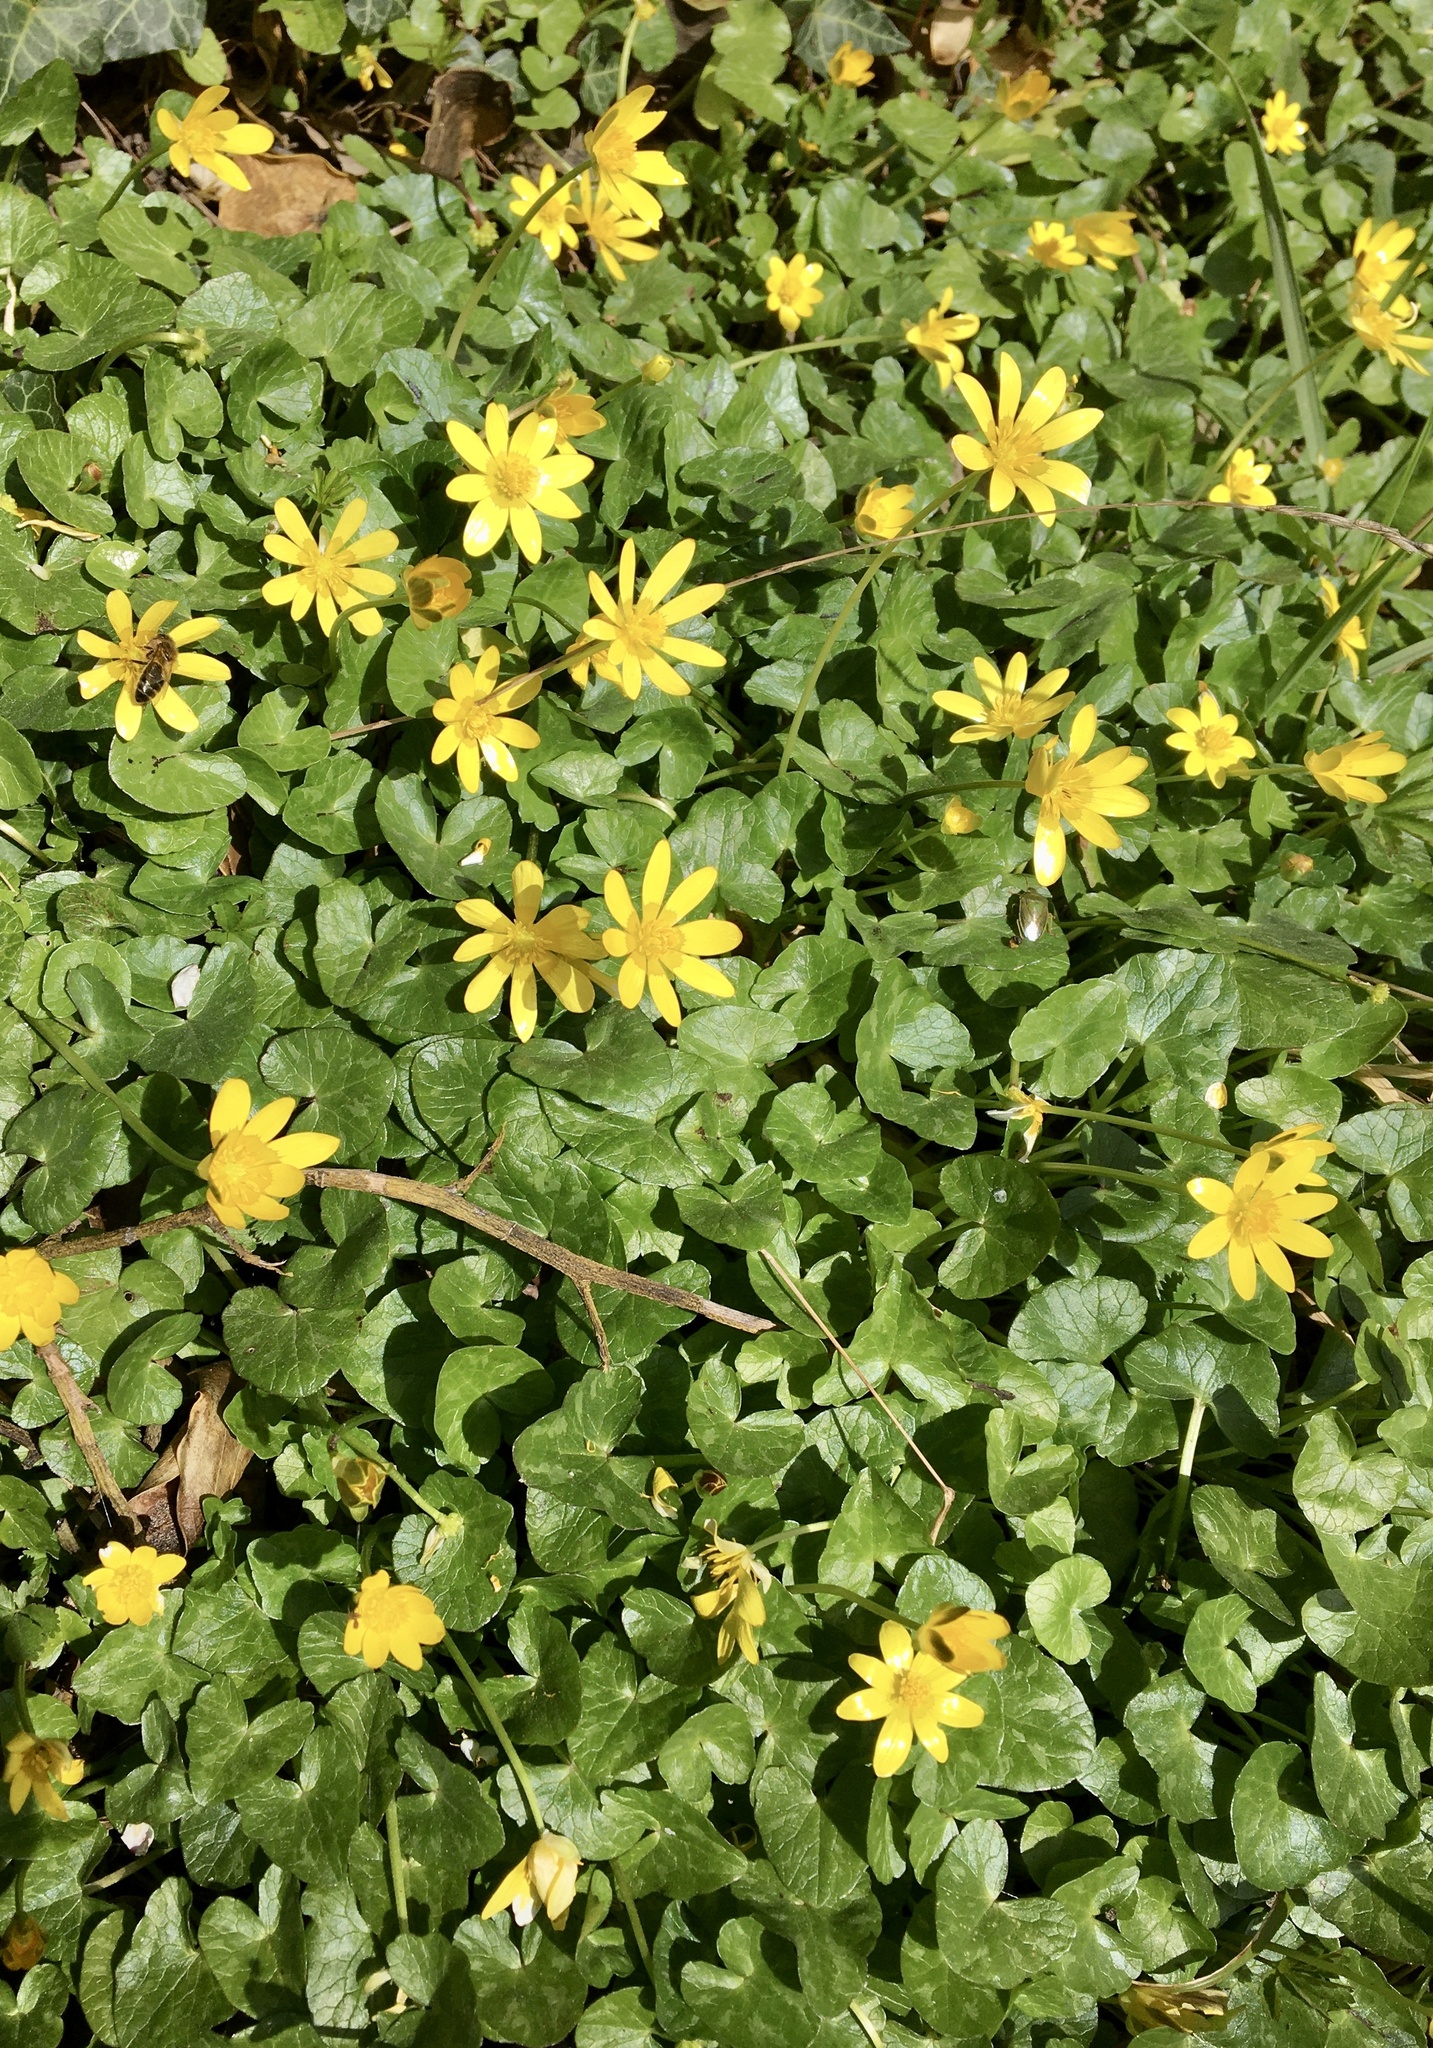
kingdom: Plantae
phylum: Tracheophyta
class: Magnoliopsida
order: Ranunculales
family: Ranunculaceae
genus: Ficaria
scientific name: Ficaria verna
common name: Lesser celandine
